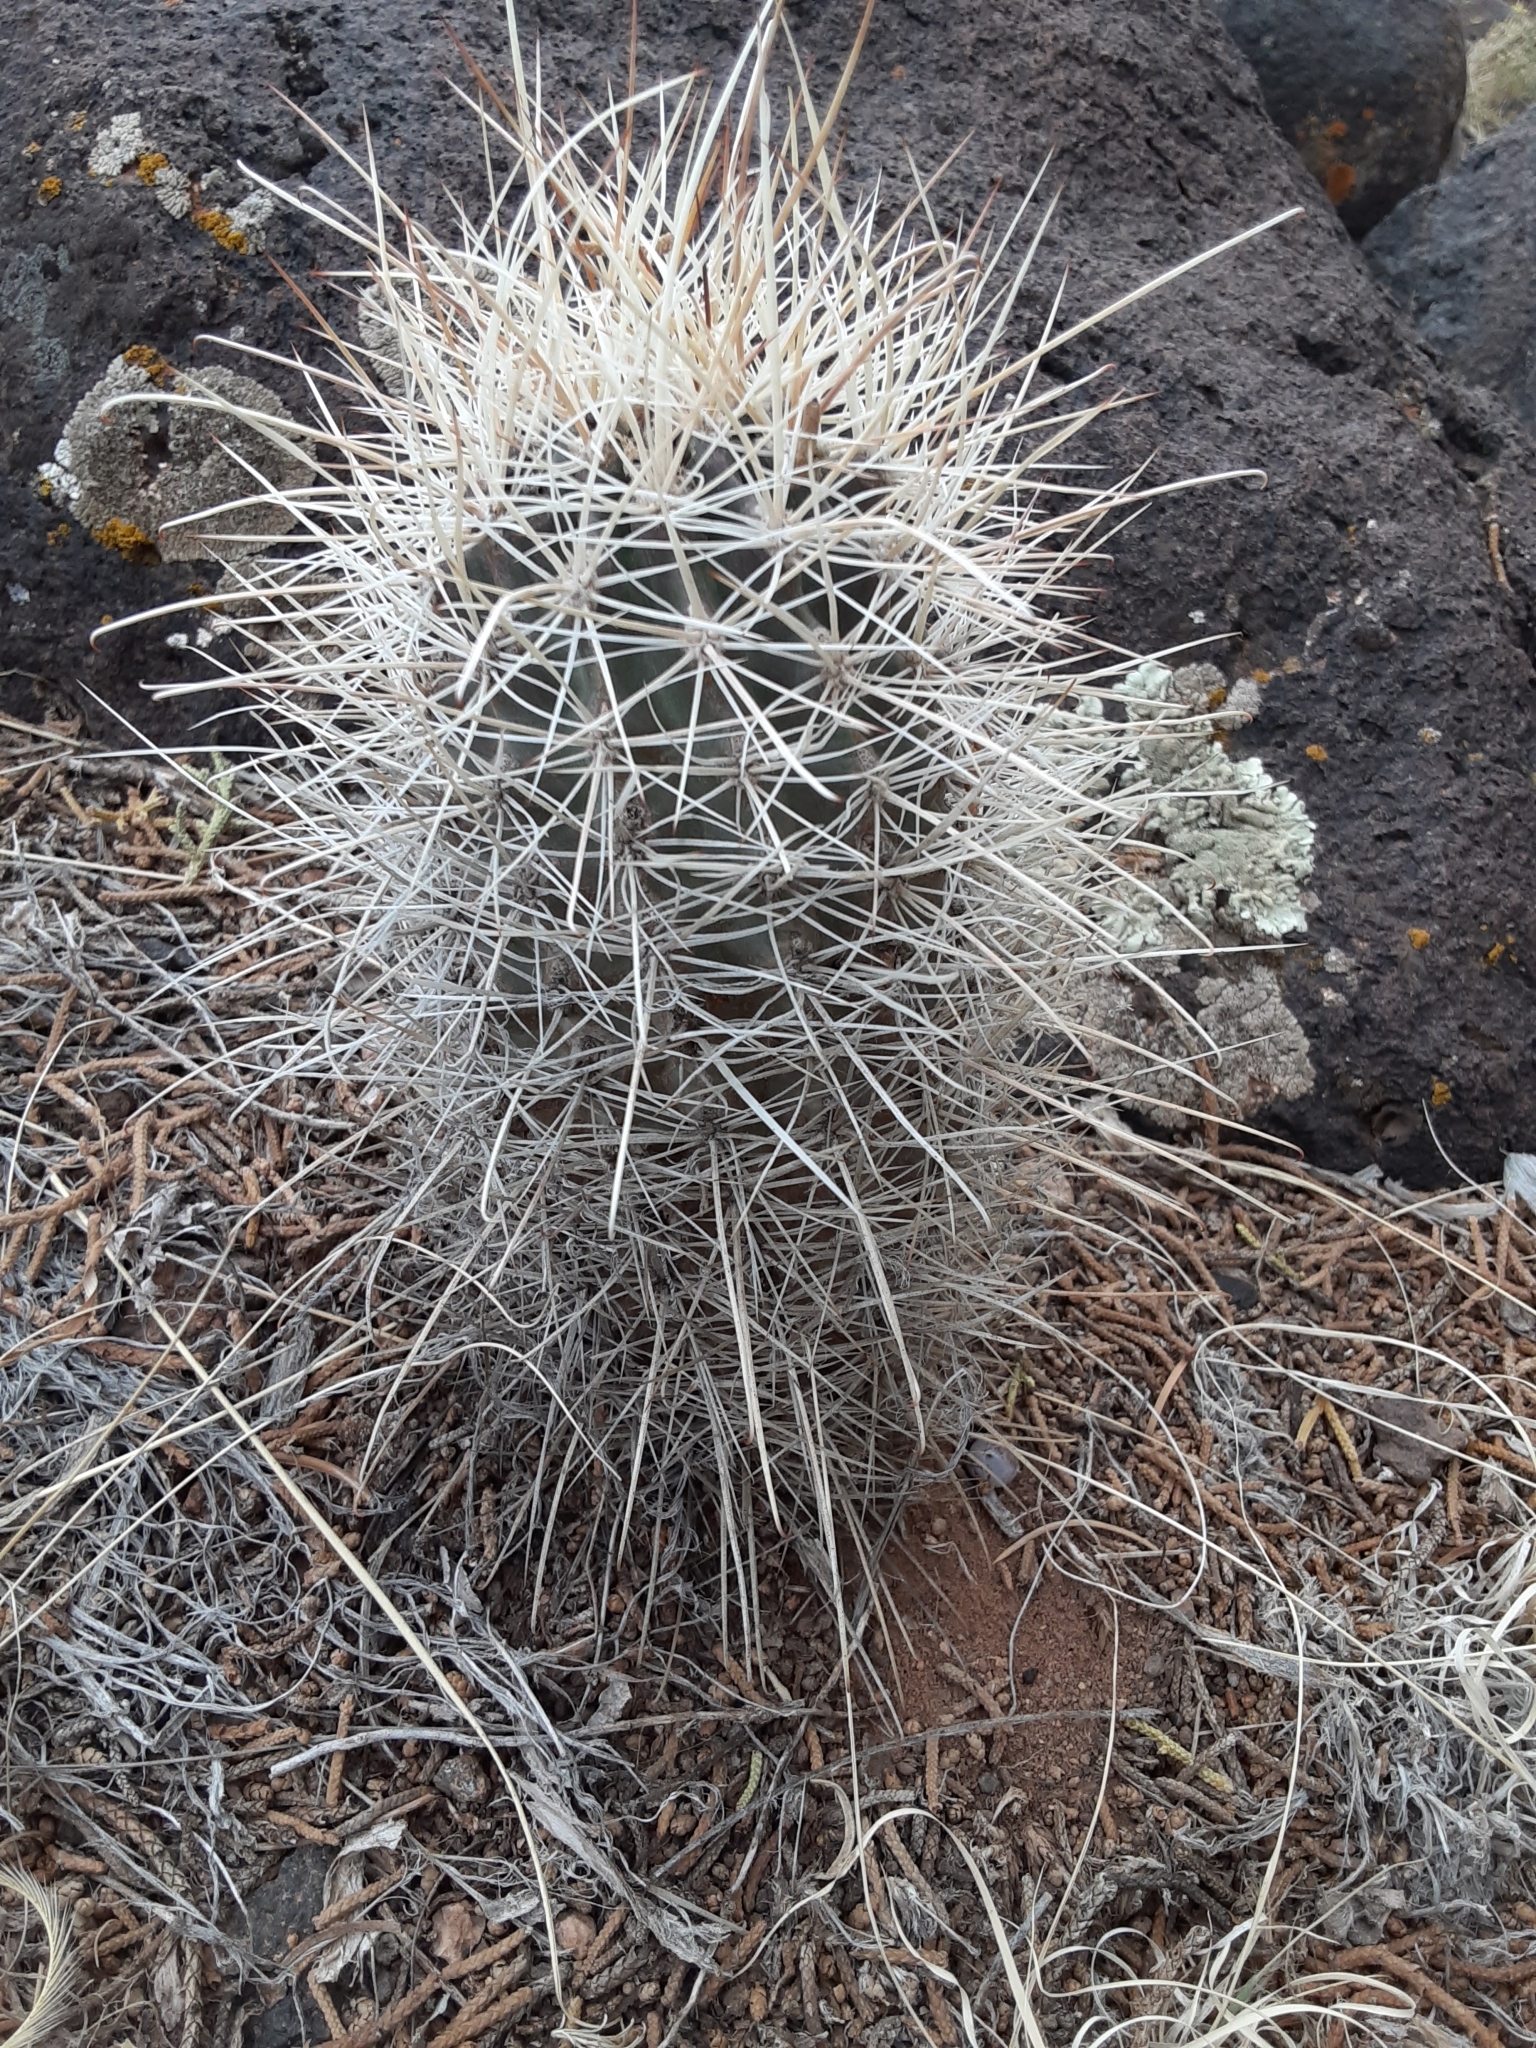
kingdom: Plantae
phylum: Tracheophyta
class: Magnoliopsida
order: Caryophyllales
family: Cactaceae
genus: Sclerocactus
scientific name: Sclerocactus parviflorus
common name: Small-flower fishhook cactus
